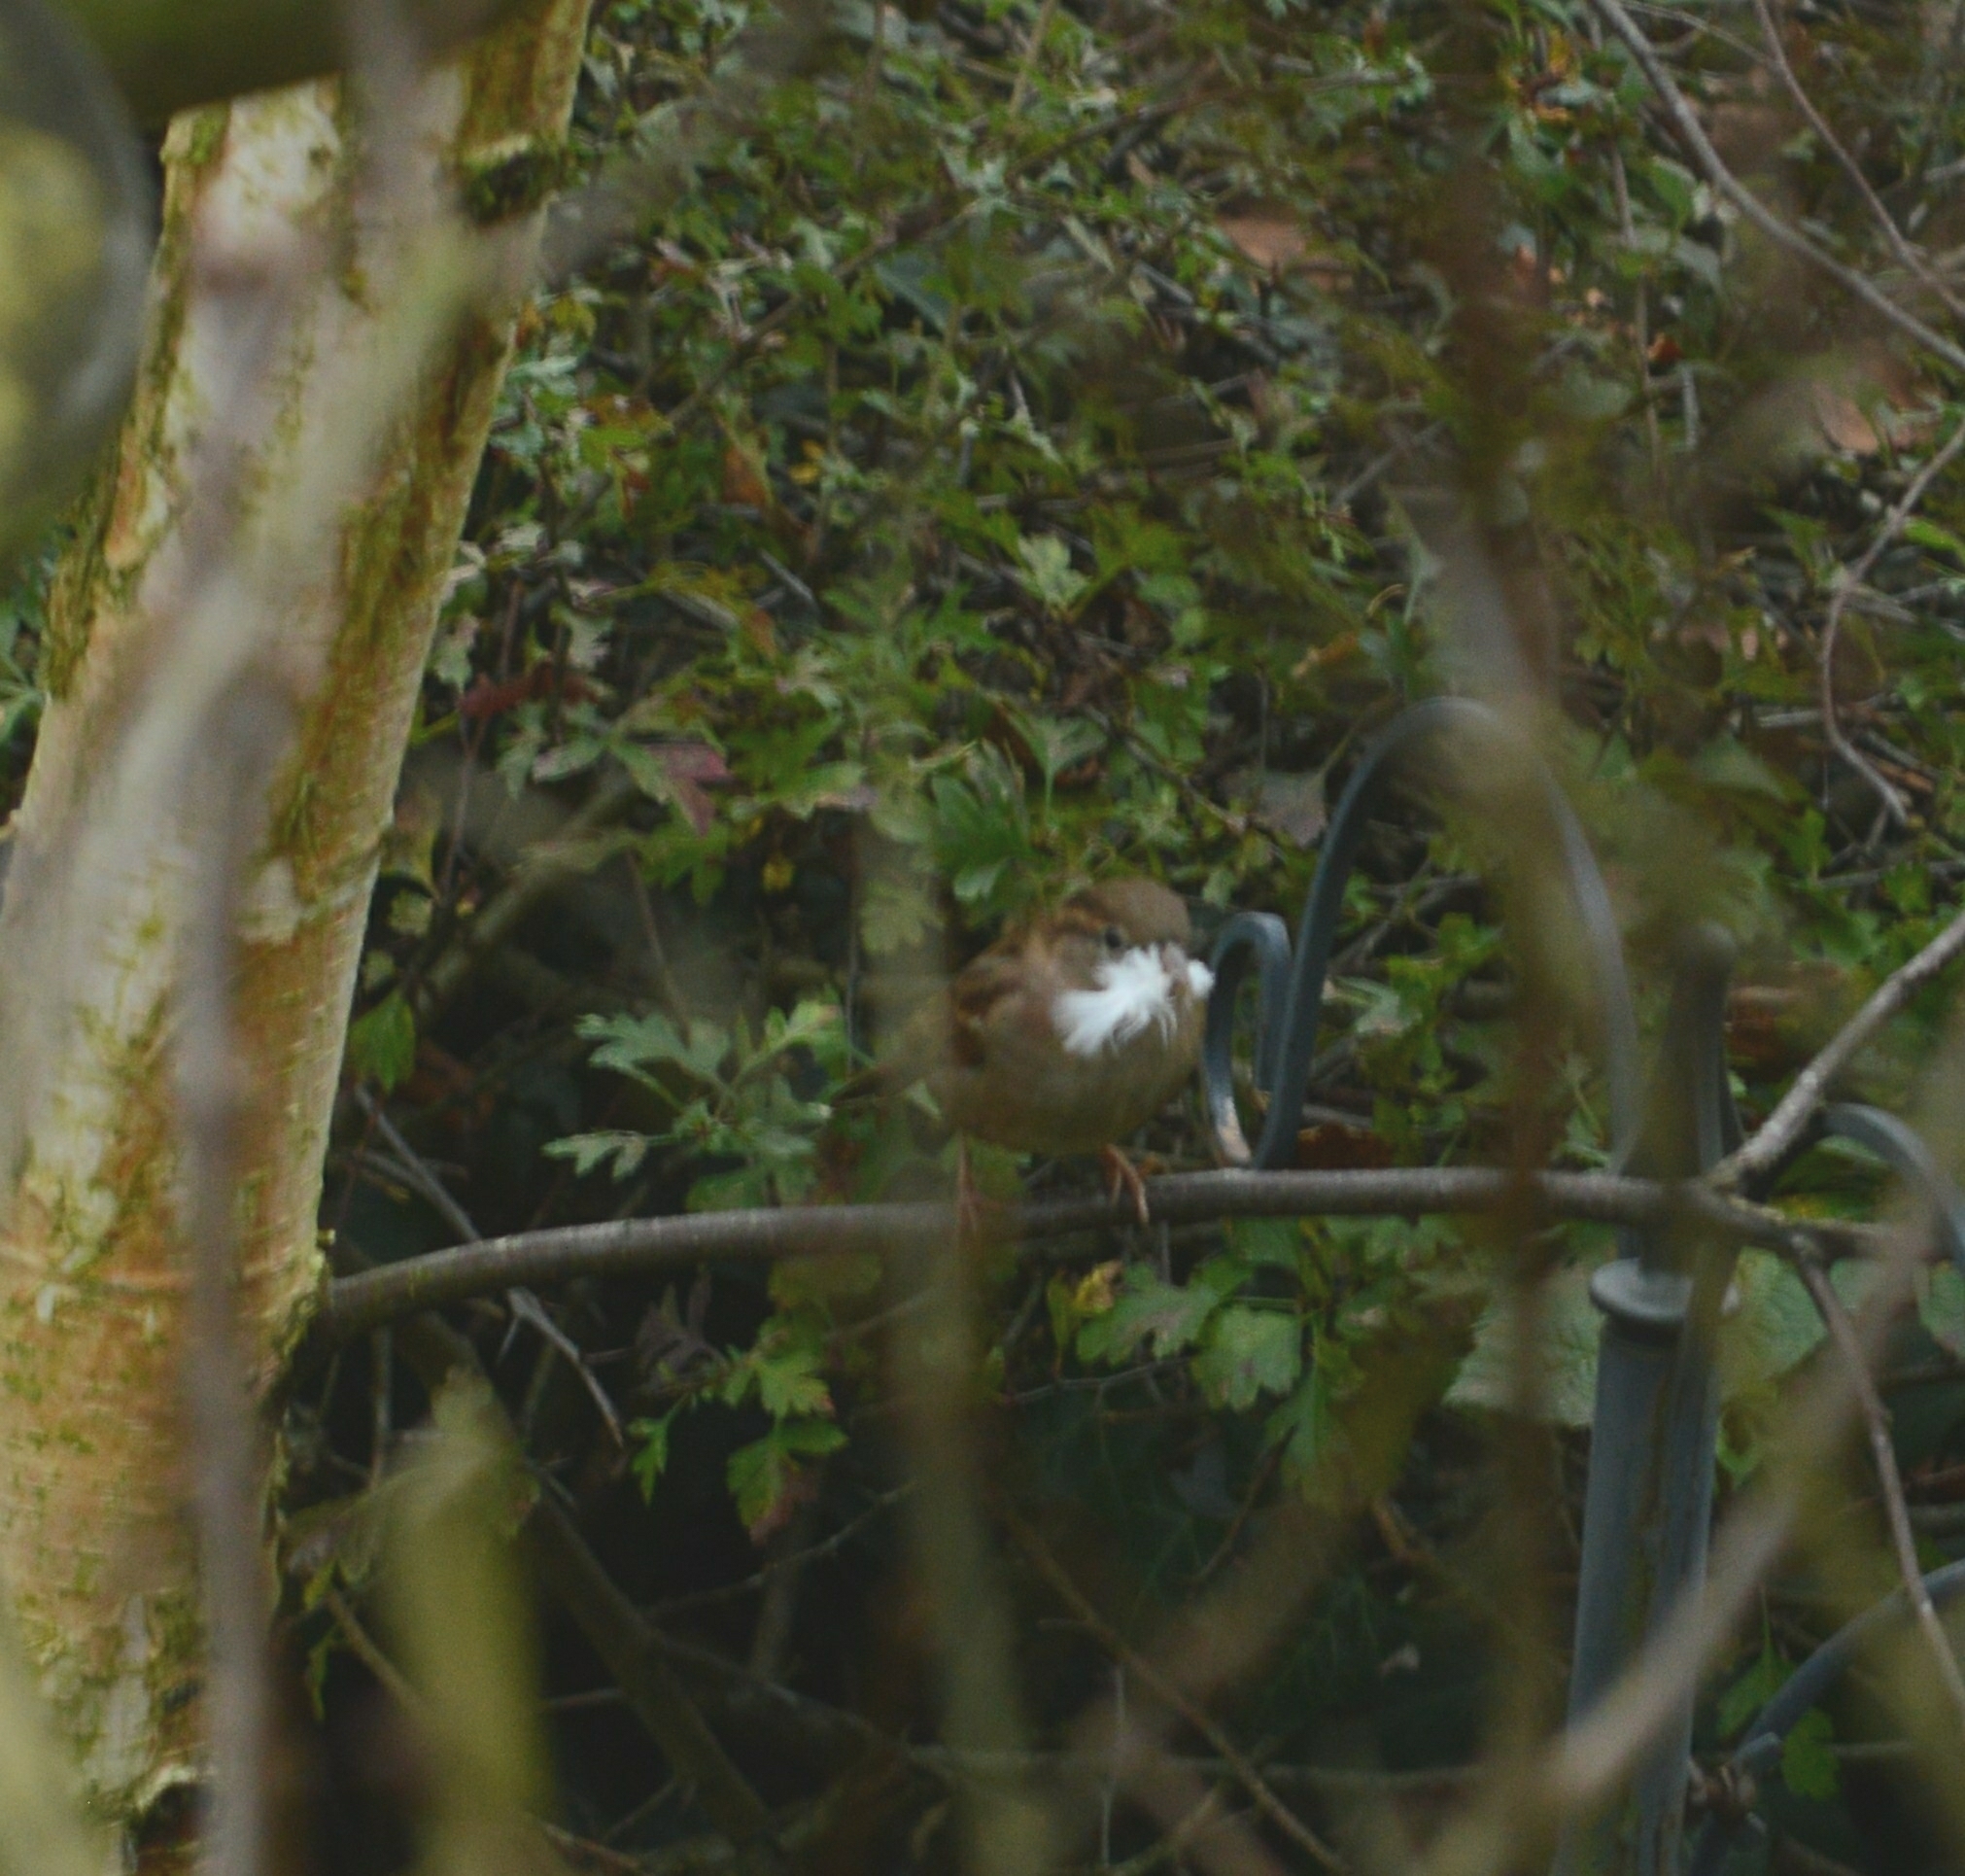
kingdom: Animalia
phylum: Chordata
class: Aves
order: Passeriformes
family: Passeridae
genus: Passer
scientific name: Passer domesticus
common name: House sparrow
